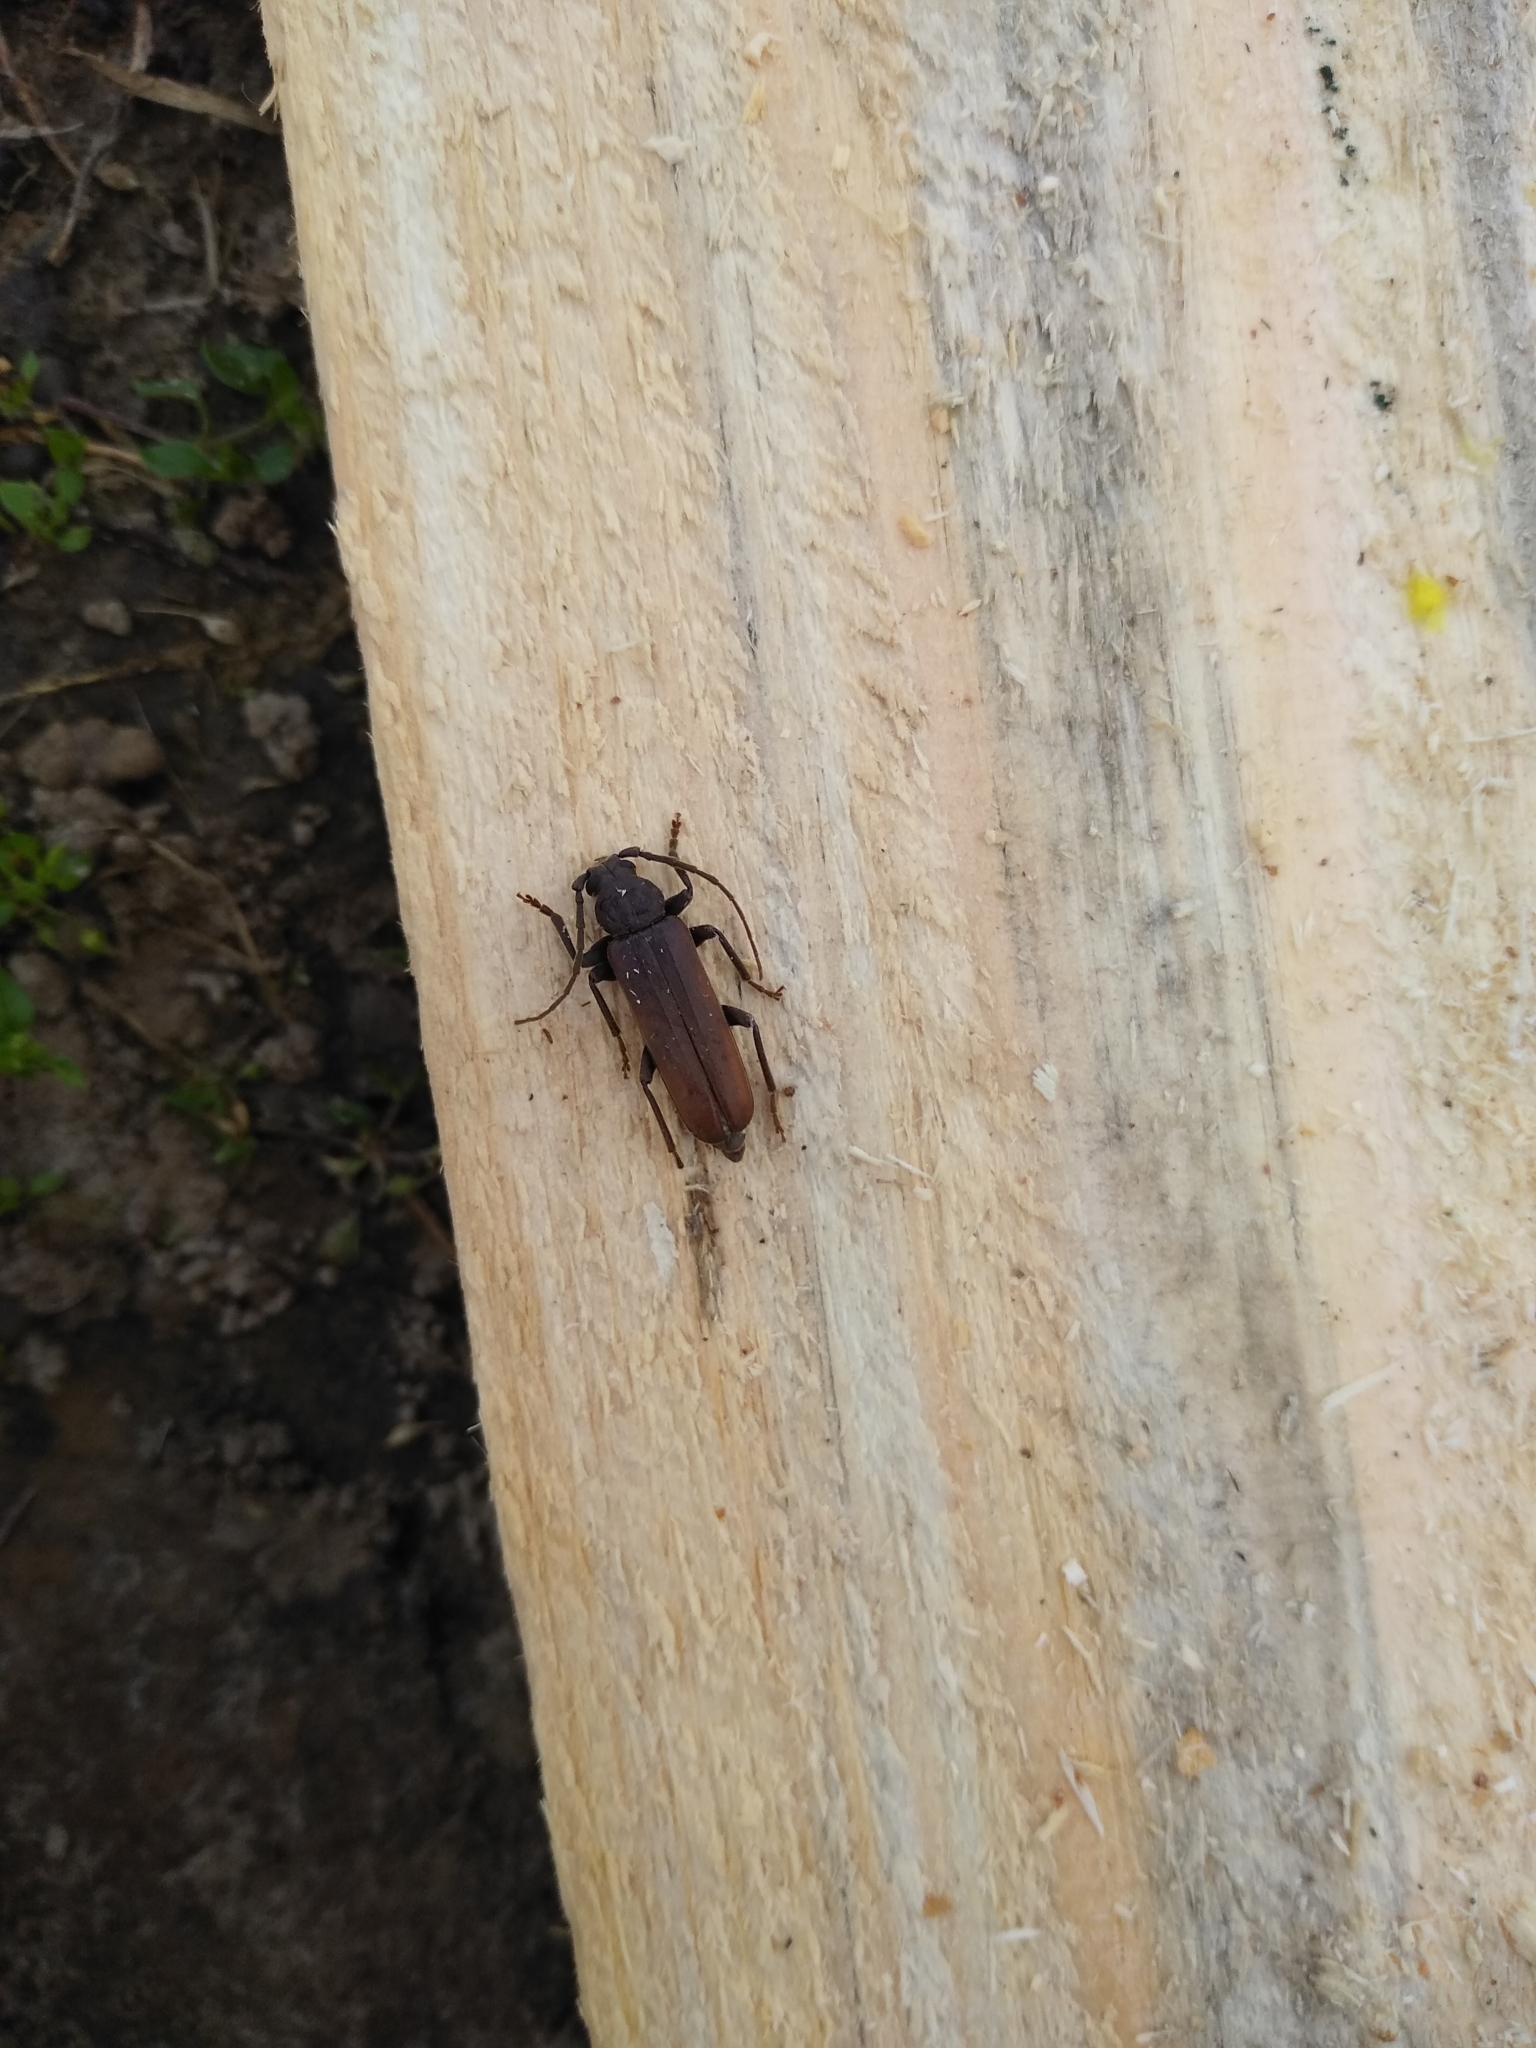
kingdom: Animalia
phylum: Arthropoda
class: Insecta
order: Coleoptera
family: Cerambycidae
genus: Arhopalus
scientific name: Arhopalus rusticus
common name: Rust pine borer
